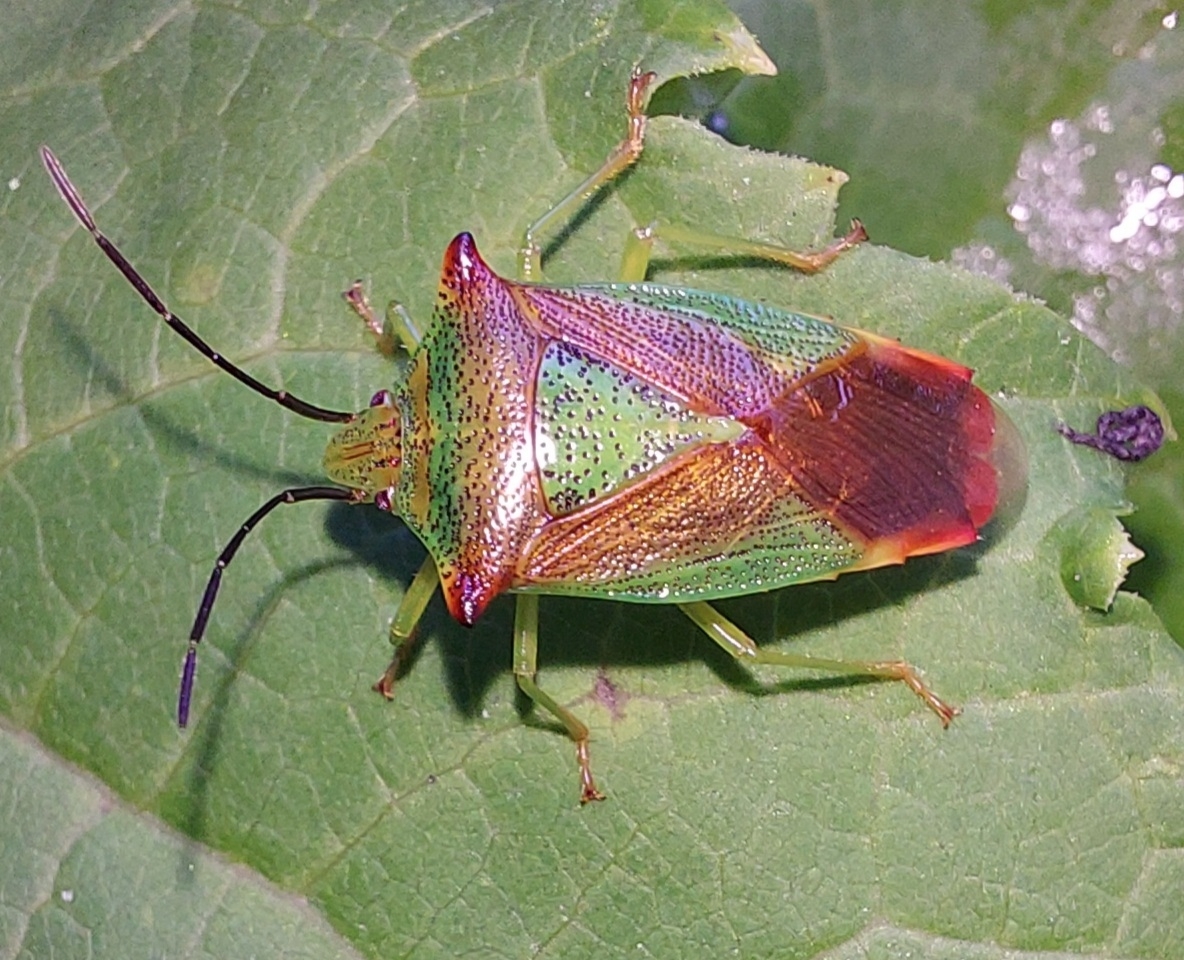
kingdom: Animalia
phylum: Arthropoda
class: Insecta
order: Hemiptera
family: Acanthosomatidae
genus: Acanthosoma
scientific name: Acanthosoma haemorrhoidale
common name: Hawthorn shieldbug
